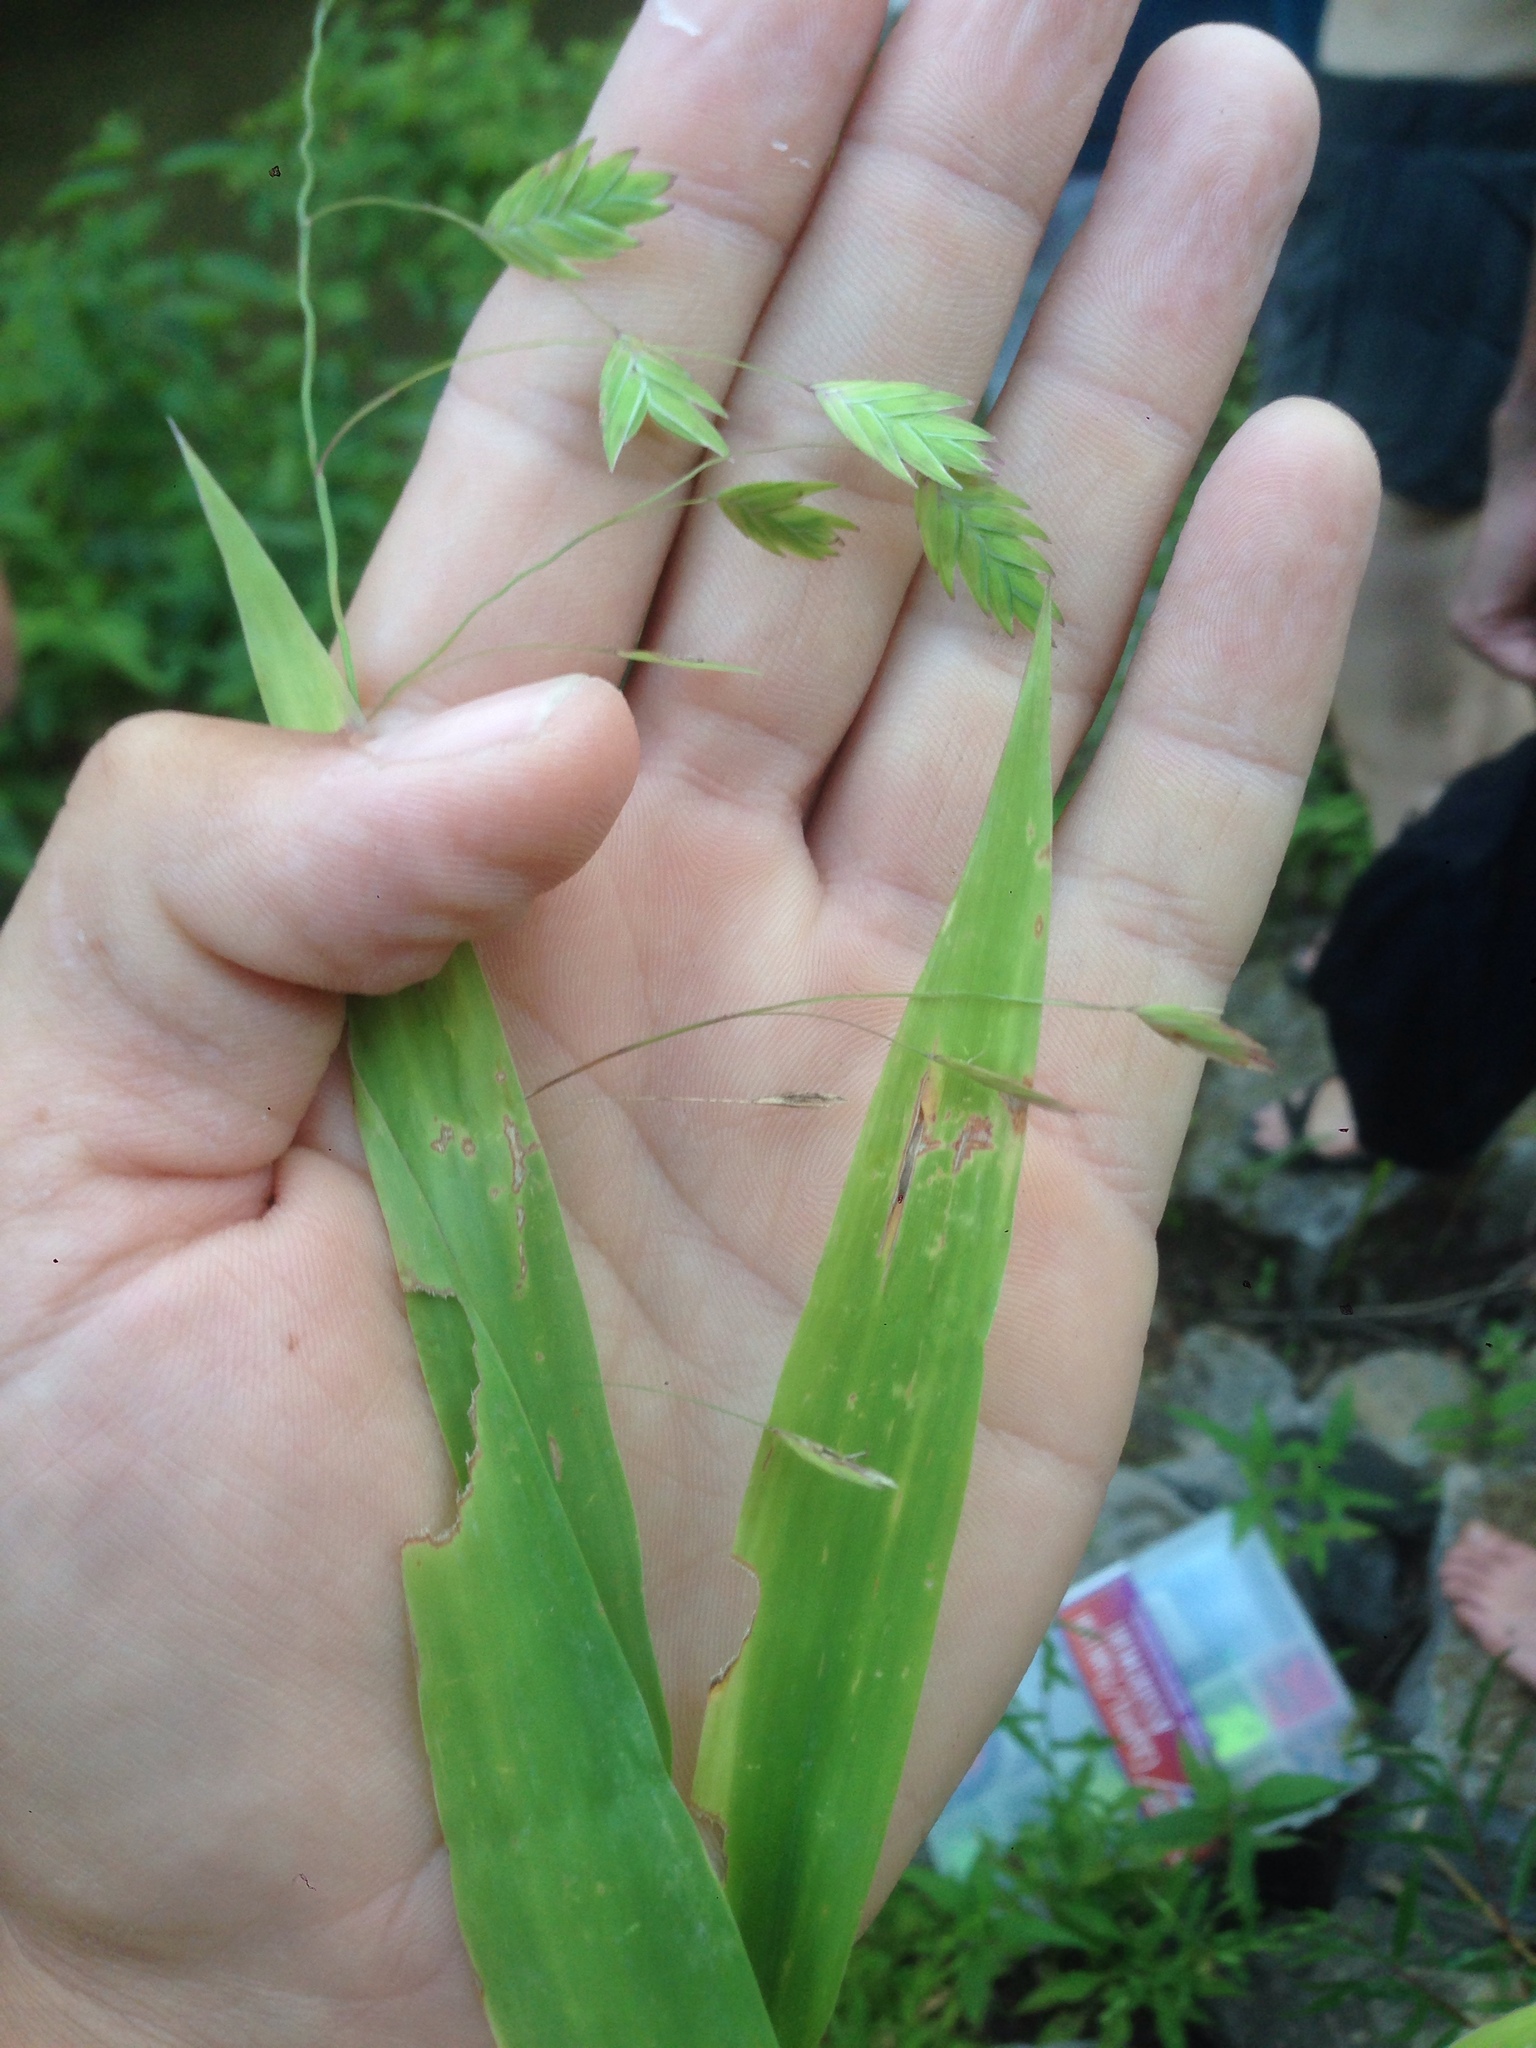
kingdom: Plantae
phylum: Tracheophyta
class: Liliopsida
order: Poales
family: Poaceae
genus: Chasmanthium
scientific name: Chasmanthium latifolium
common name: Broad-leaved chasmanthium
